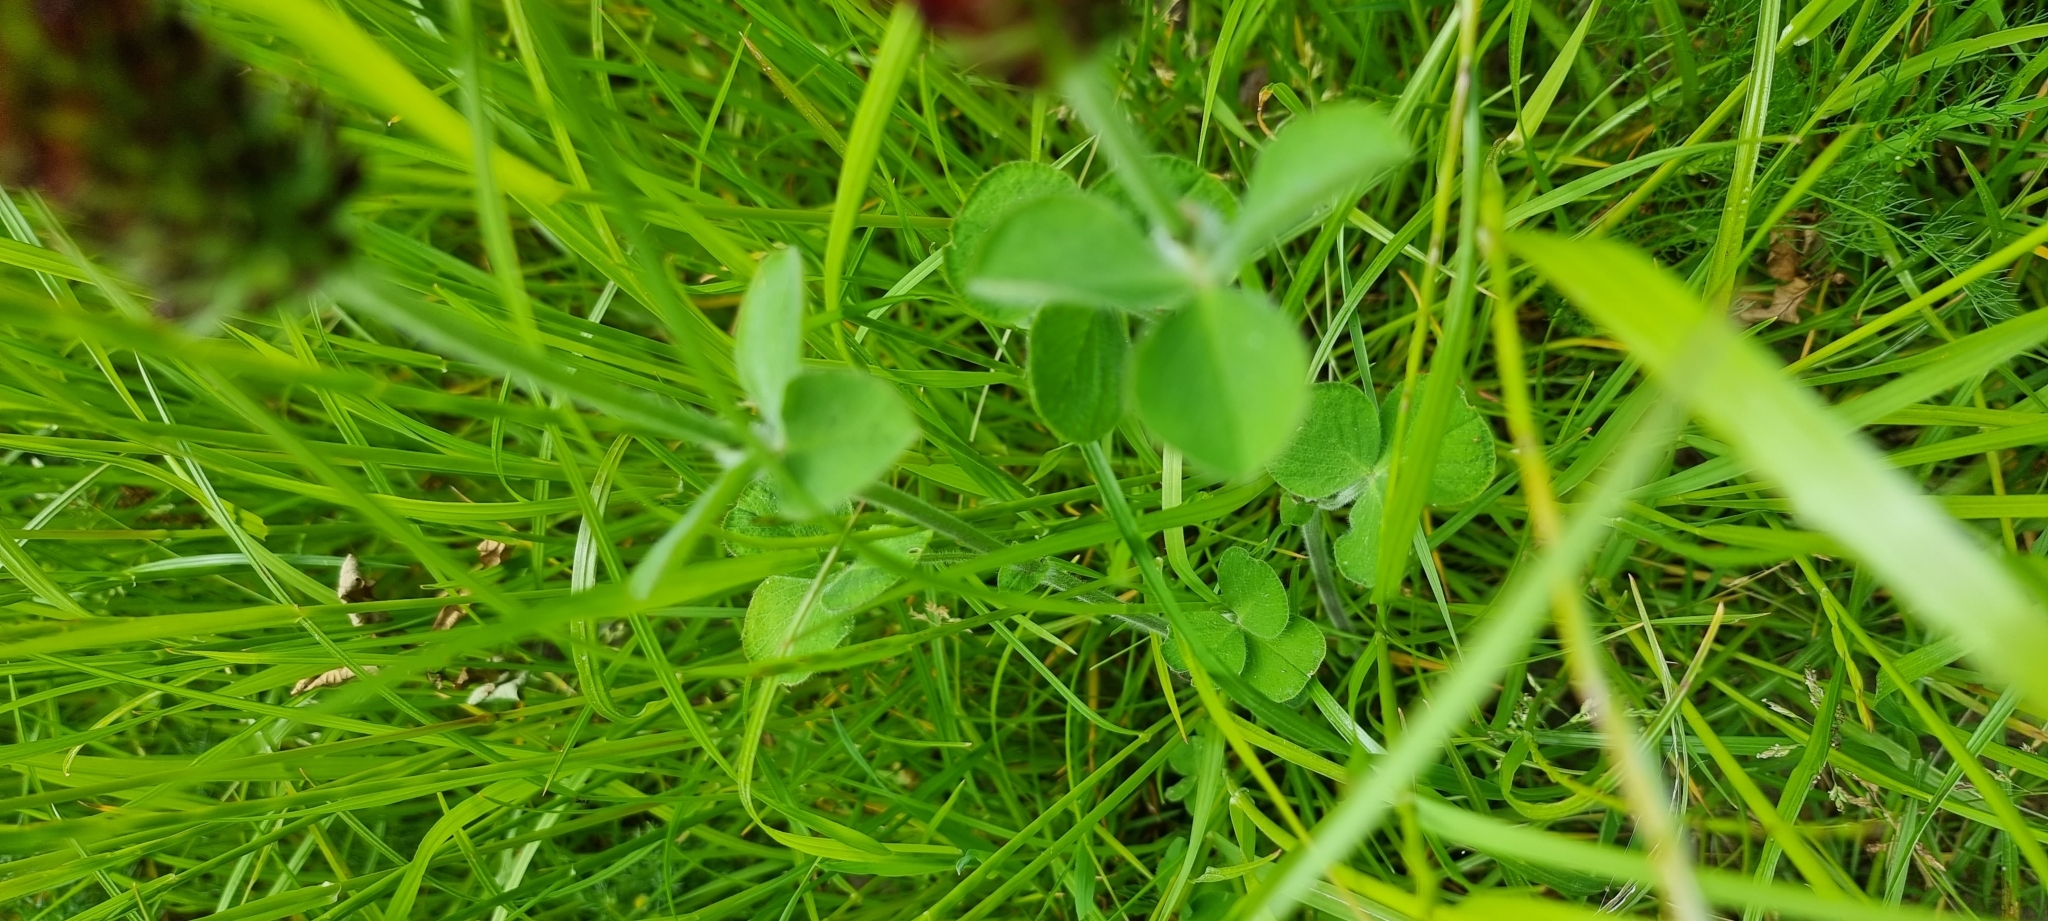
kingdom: Plantae
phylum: Tracheophyta
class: Magnoliopsida
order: Fabales
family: Fabaceae
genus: Trifolium
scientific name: Trifolium incarnatum
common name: Crimson clover
